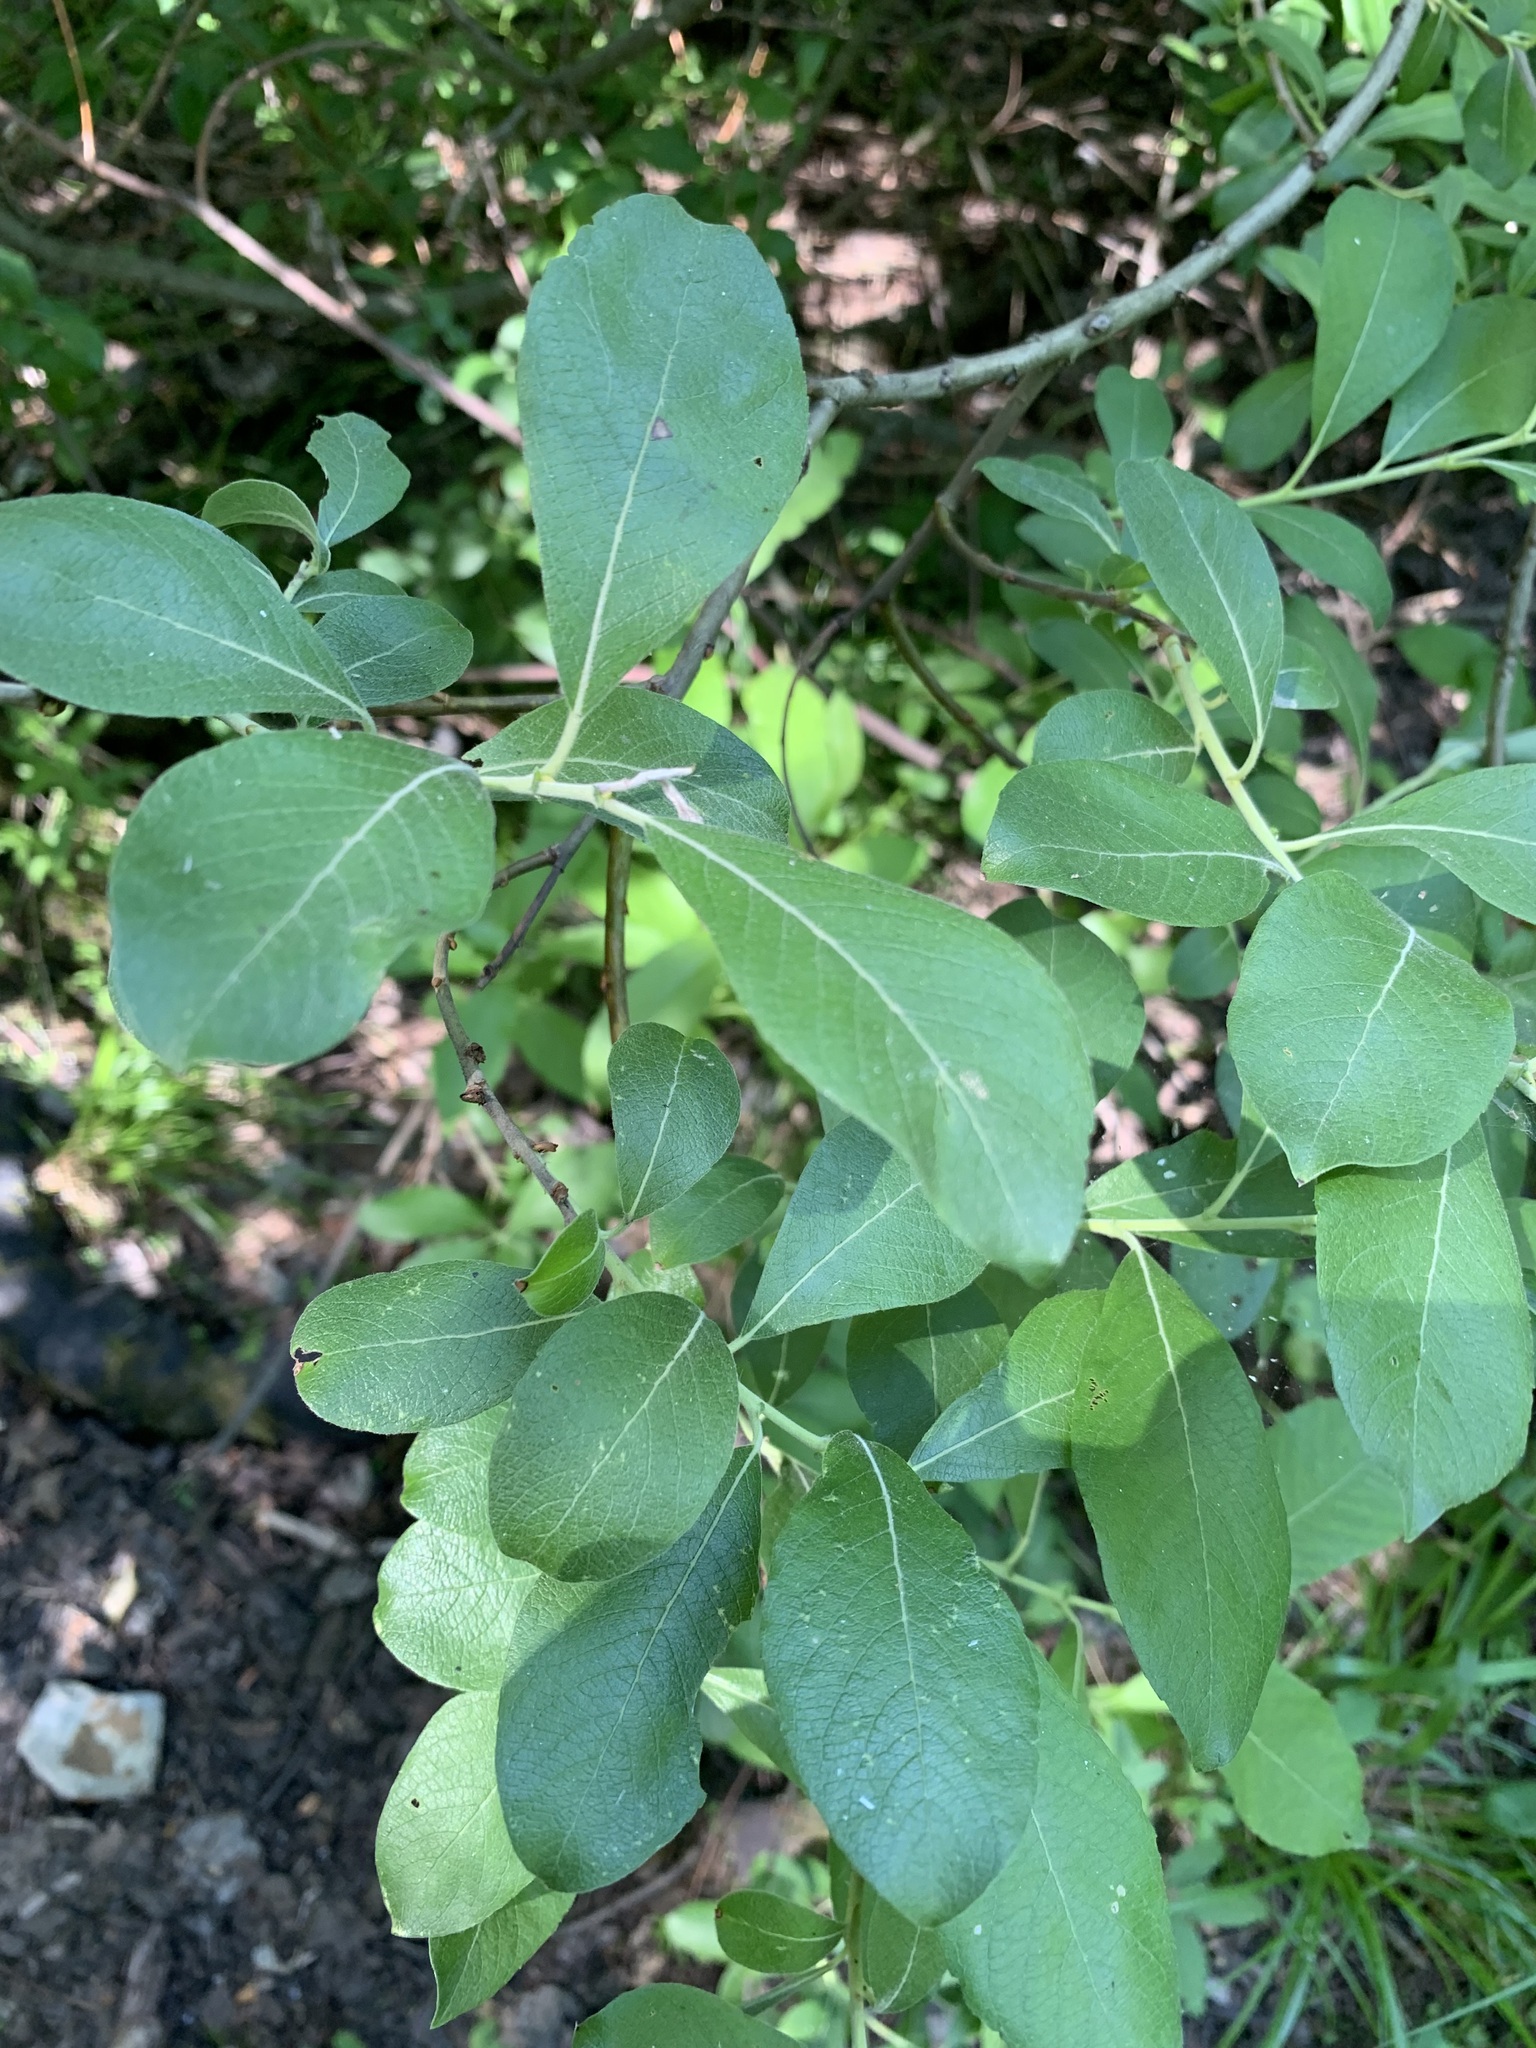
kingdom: Plantae
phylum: Tracheophyta
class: Magnoliopsida
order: Malpighiales
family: Salicaceae
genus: Salix
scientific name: Salix cinerea
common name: Common sallow
